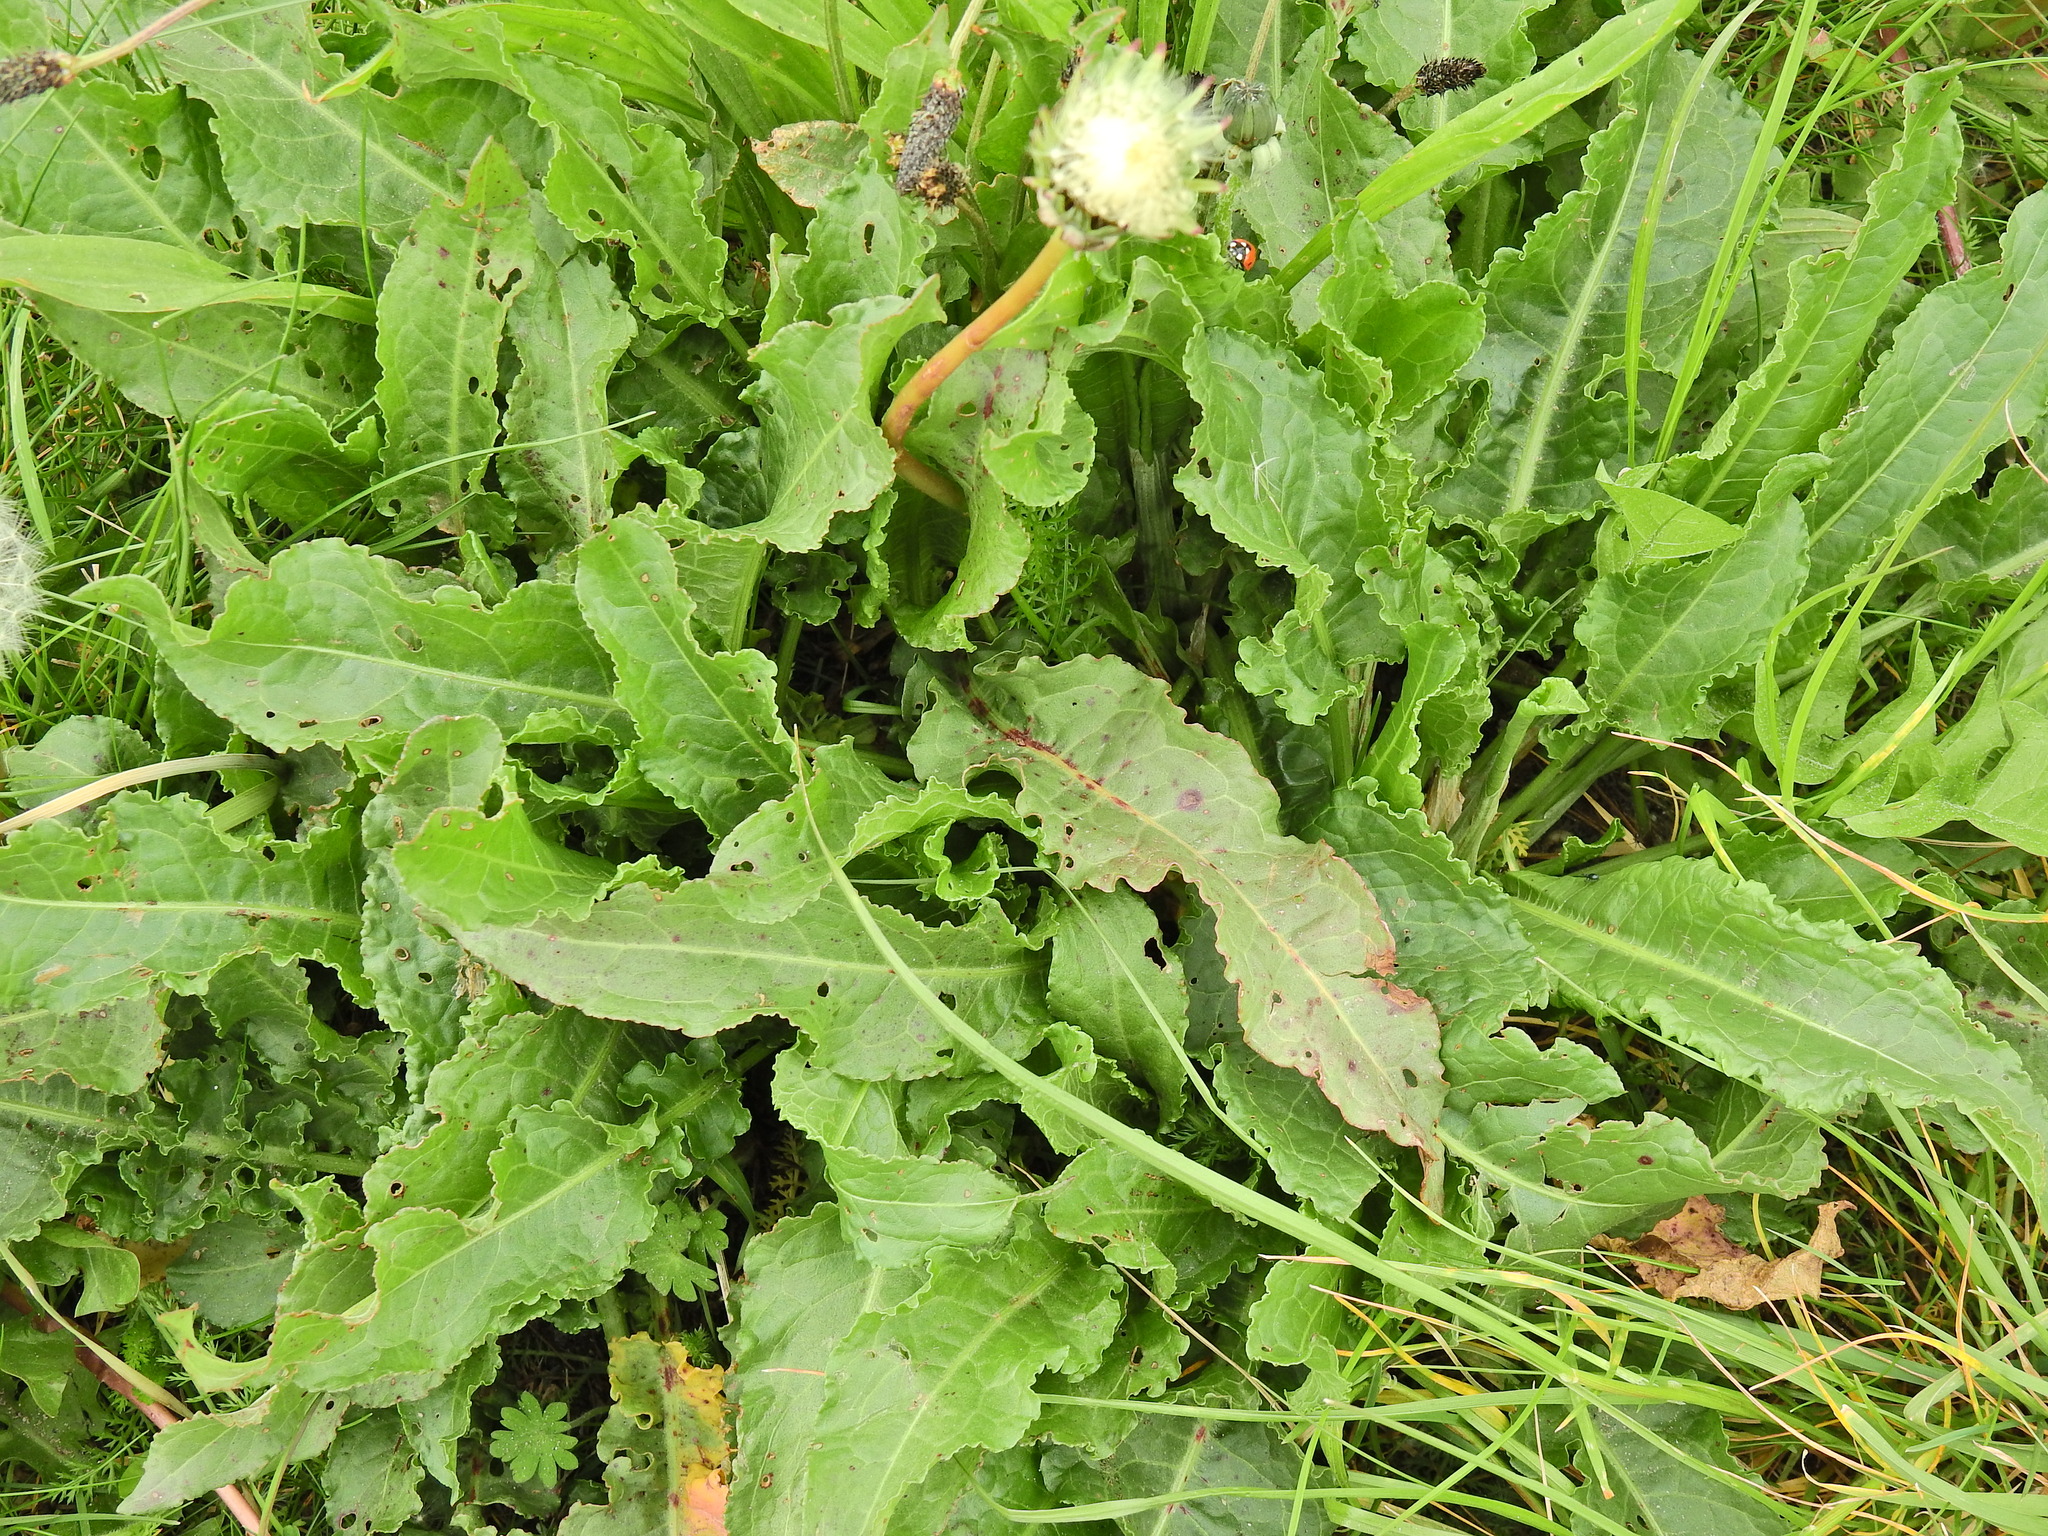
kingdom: Plantae
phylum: Tracheophyta
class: Magnoliopsida
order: Caryophyllales
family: Polygonaceae
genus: Rumex
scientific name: Rumex crispus
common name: Curled dock
